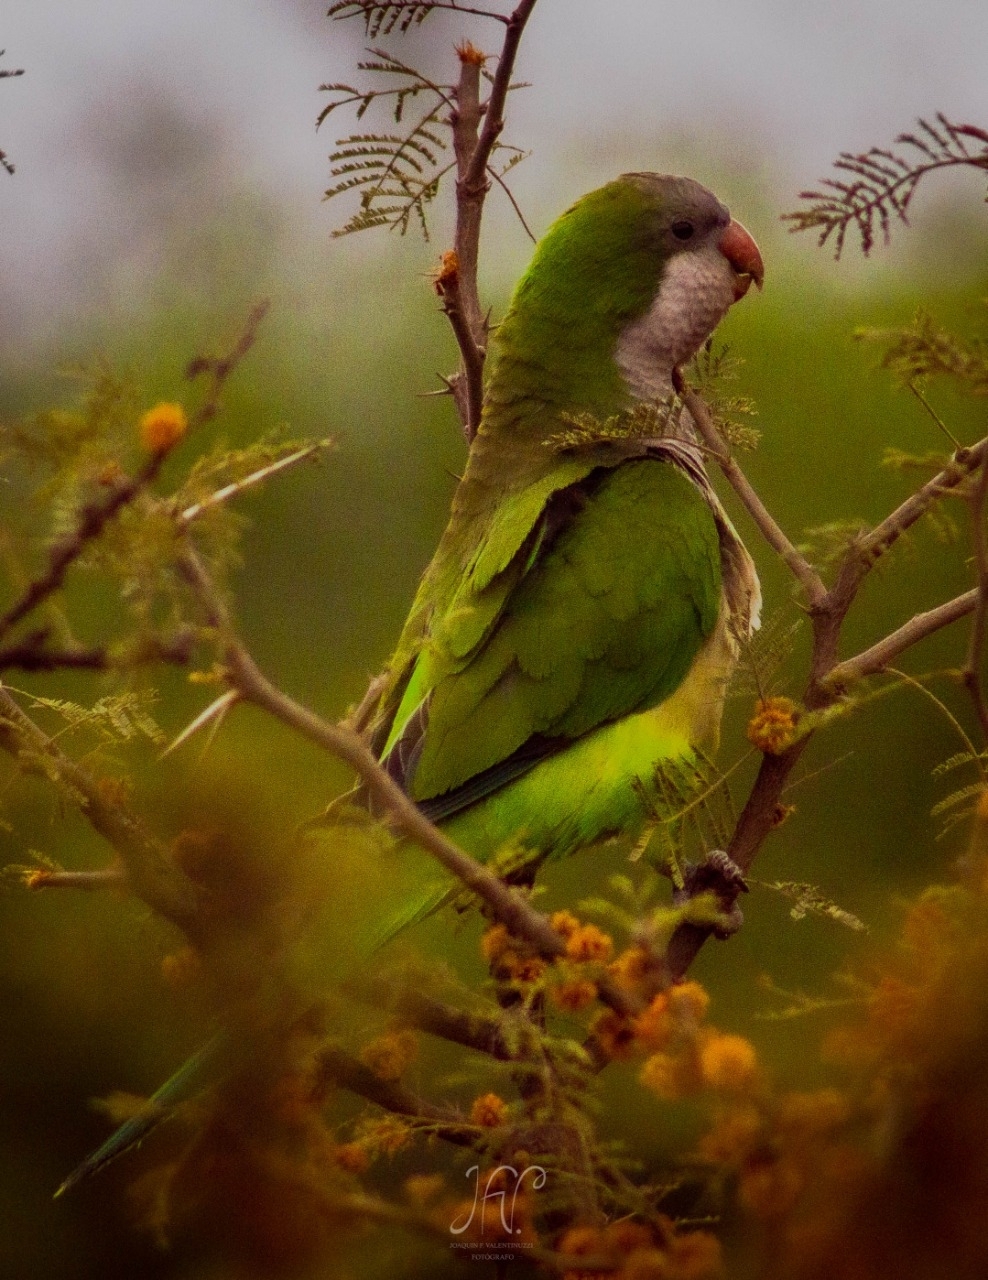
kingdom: Animalia
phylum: Chordata
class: Aves
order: Psittaciformes
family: Psittacidae
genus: Myiopsitta
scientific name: Myiopsitta monachus
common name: Monk parakeet
